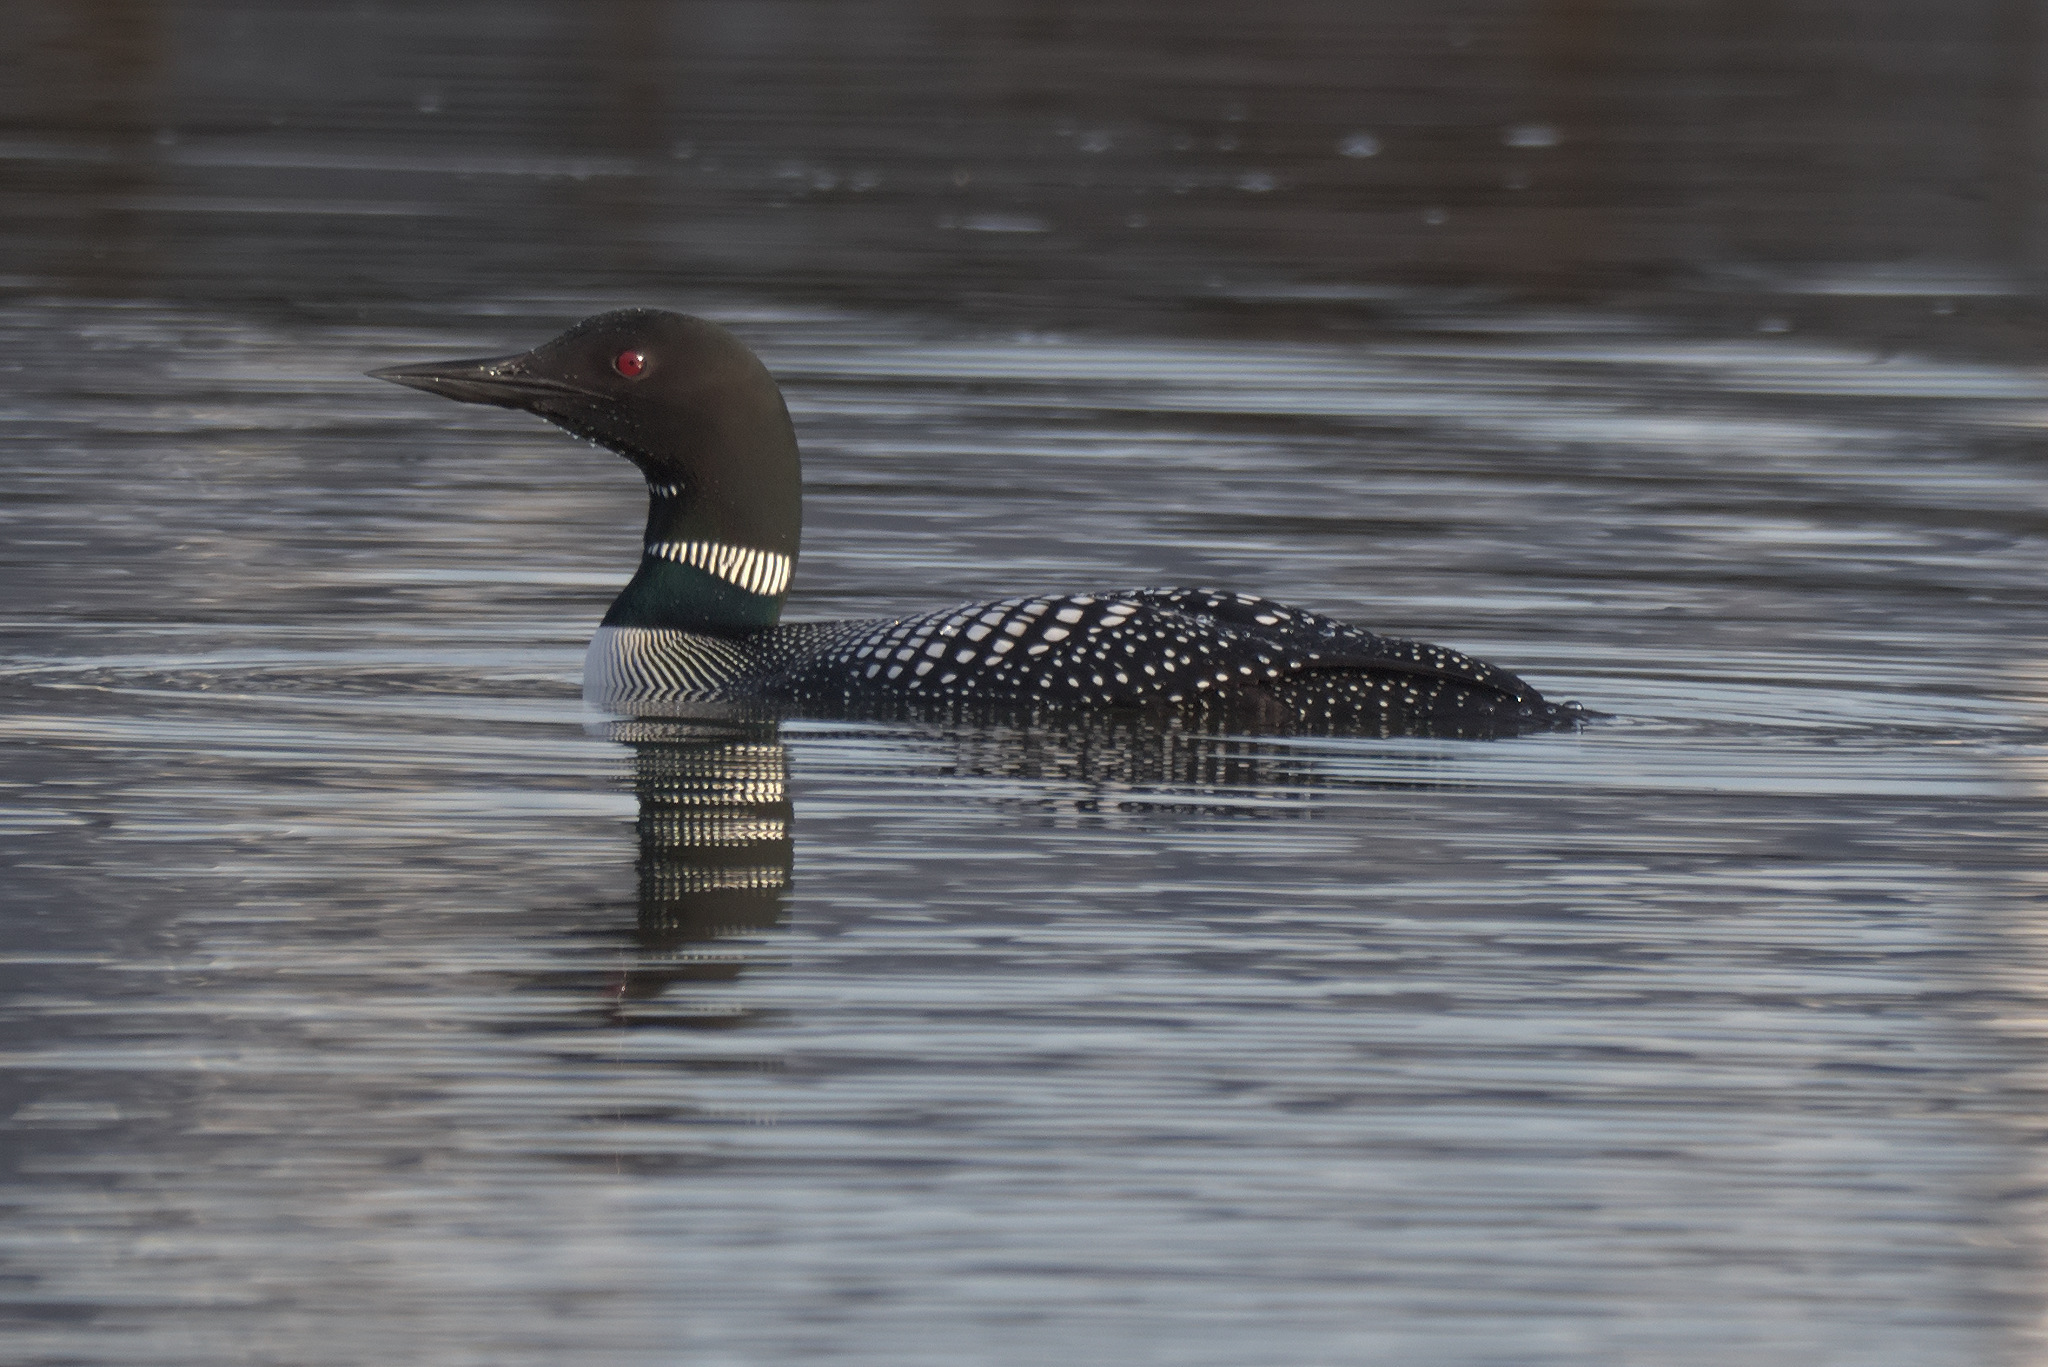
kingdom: Animalia
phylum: Chordata
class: Aves
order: Gaviiformes
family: Gaviidae
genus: Gavia
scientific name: Gavia immer
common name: Common loon
